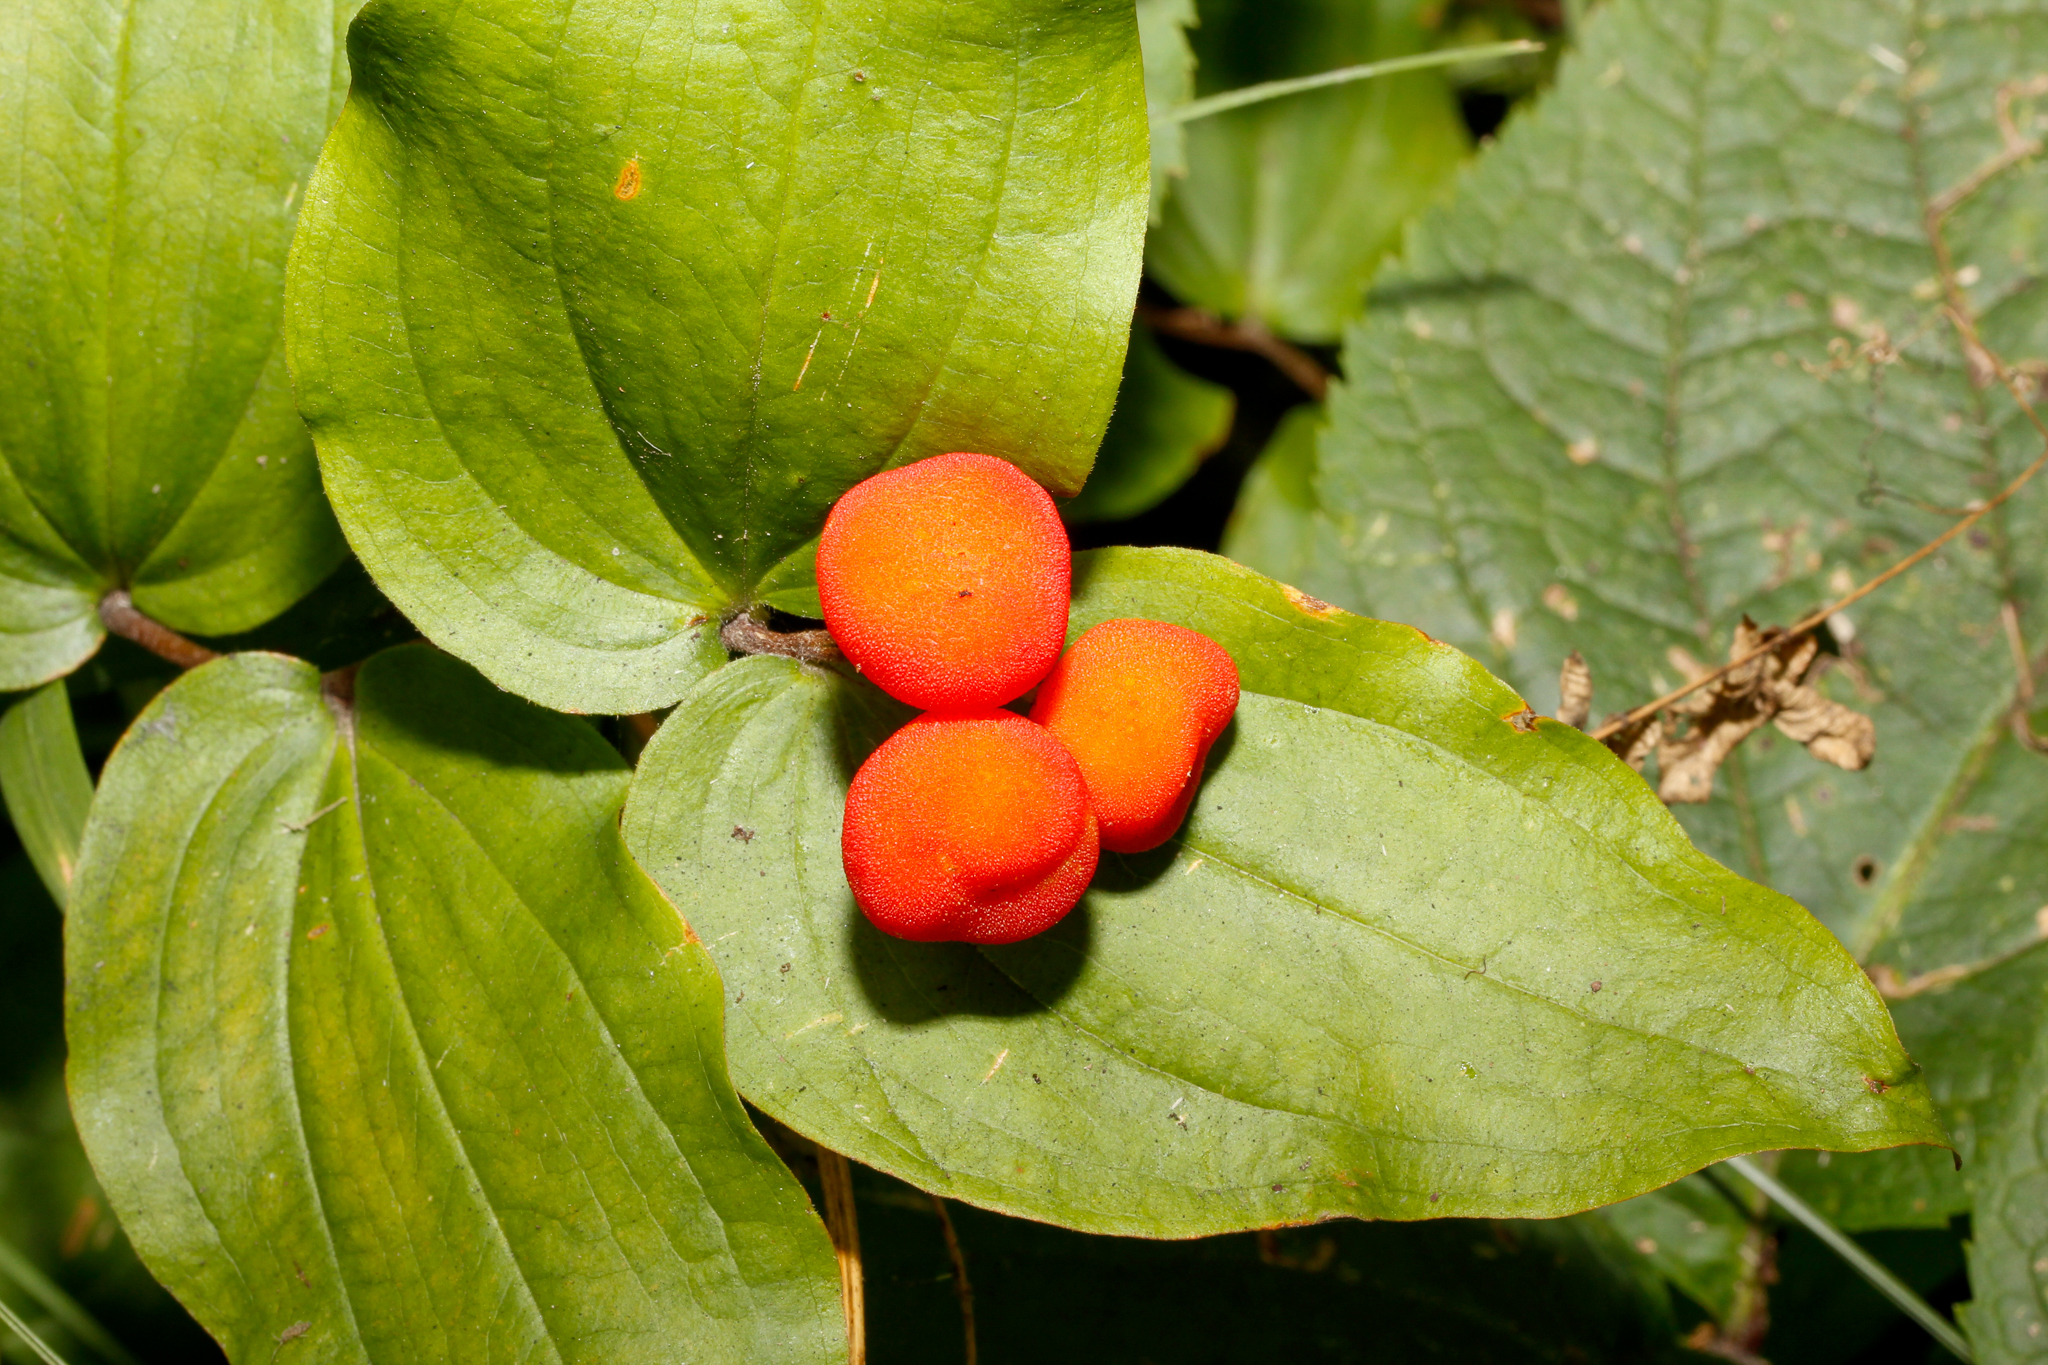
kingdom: Plantae
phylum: Tracheophyta
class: Liliopsida
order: Liliales
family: Liliaceae
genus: Prosartes
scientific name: Prosartes trachycarpa
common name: Rough-fruit fairy-bells
